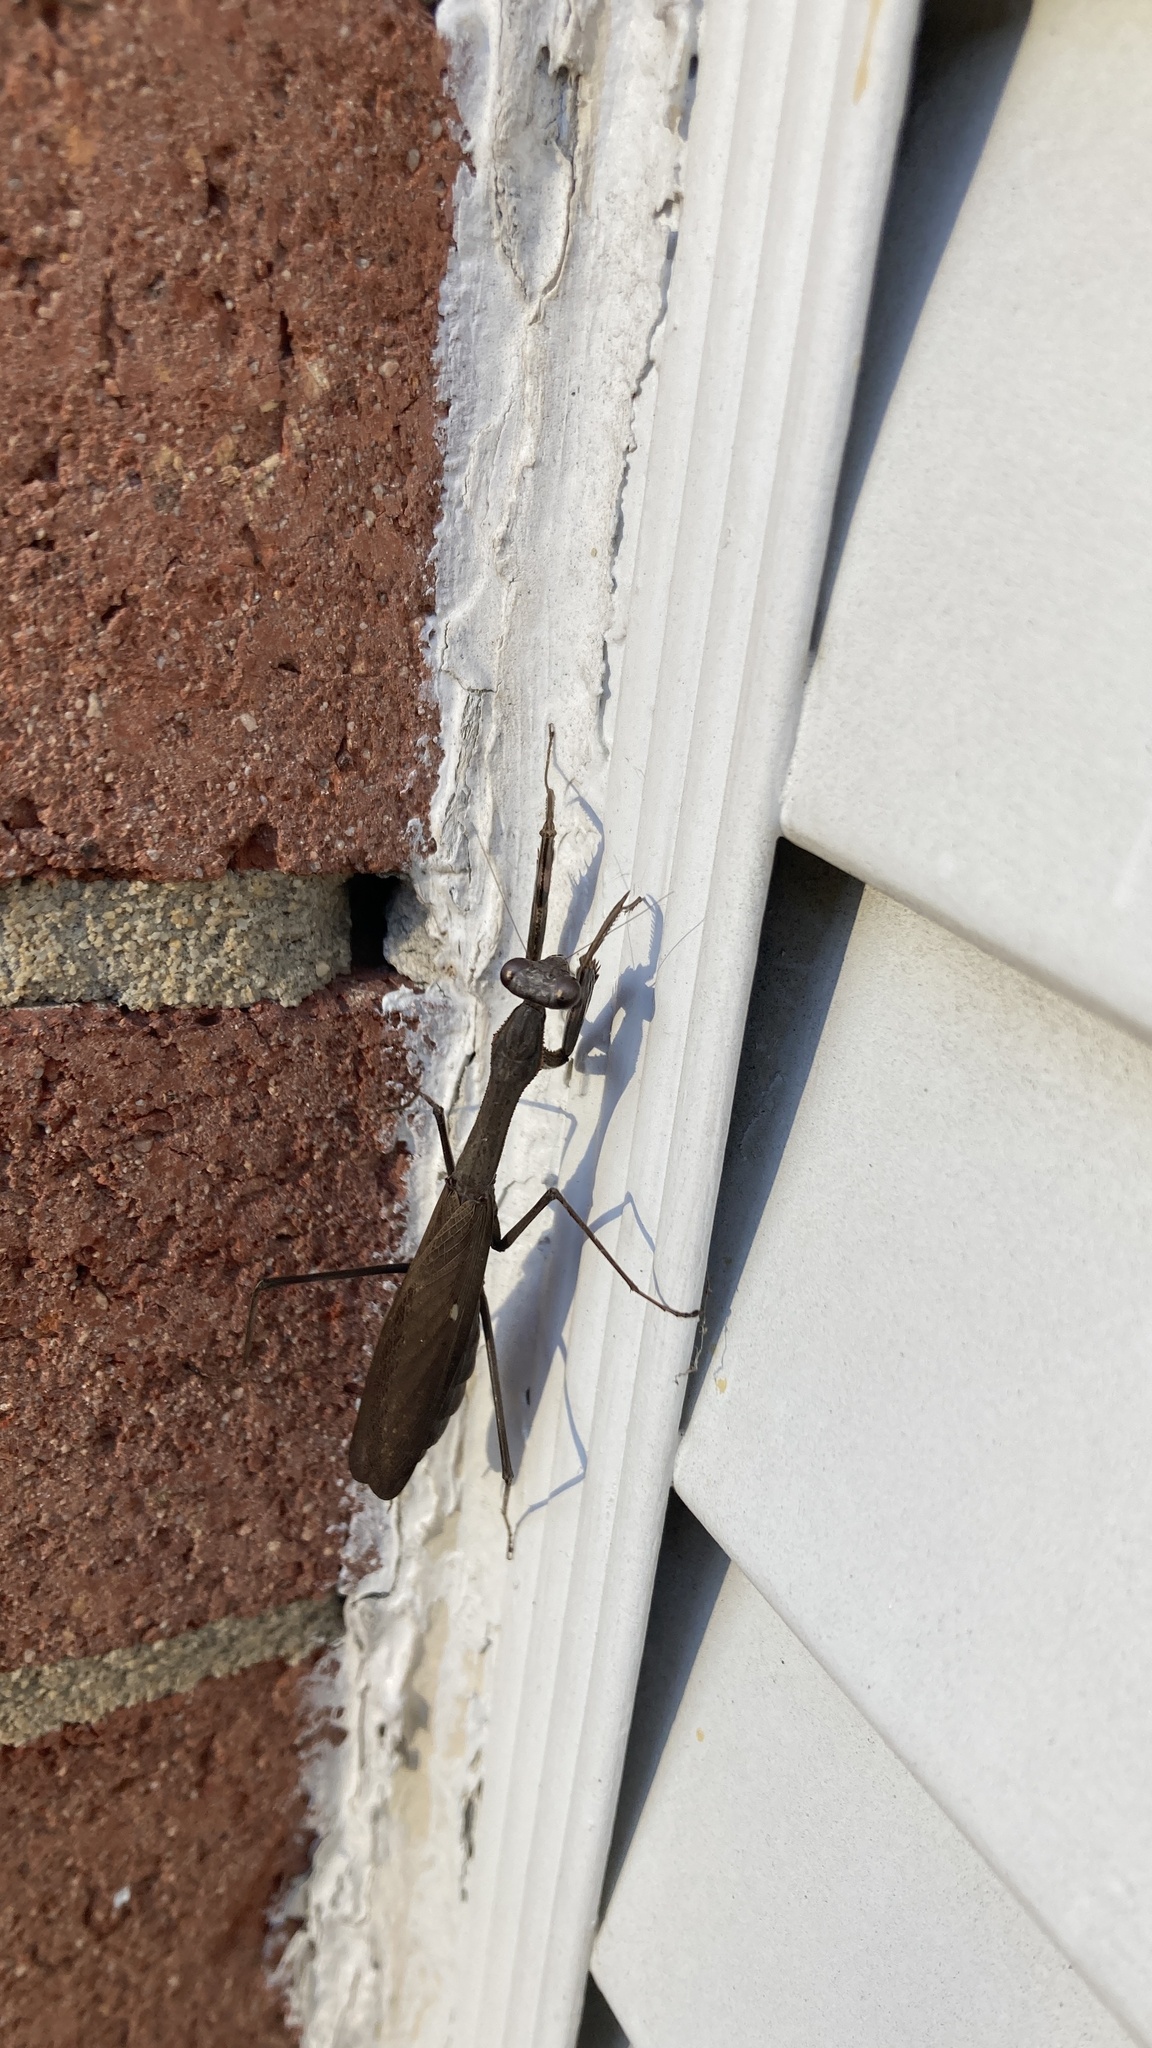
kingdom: Animalia
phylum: Arthropoda
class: Insecta
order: Mantodea
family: Mantidae
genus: Statilia
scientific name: Statilia maculata
